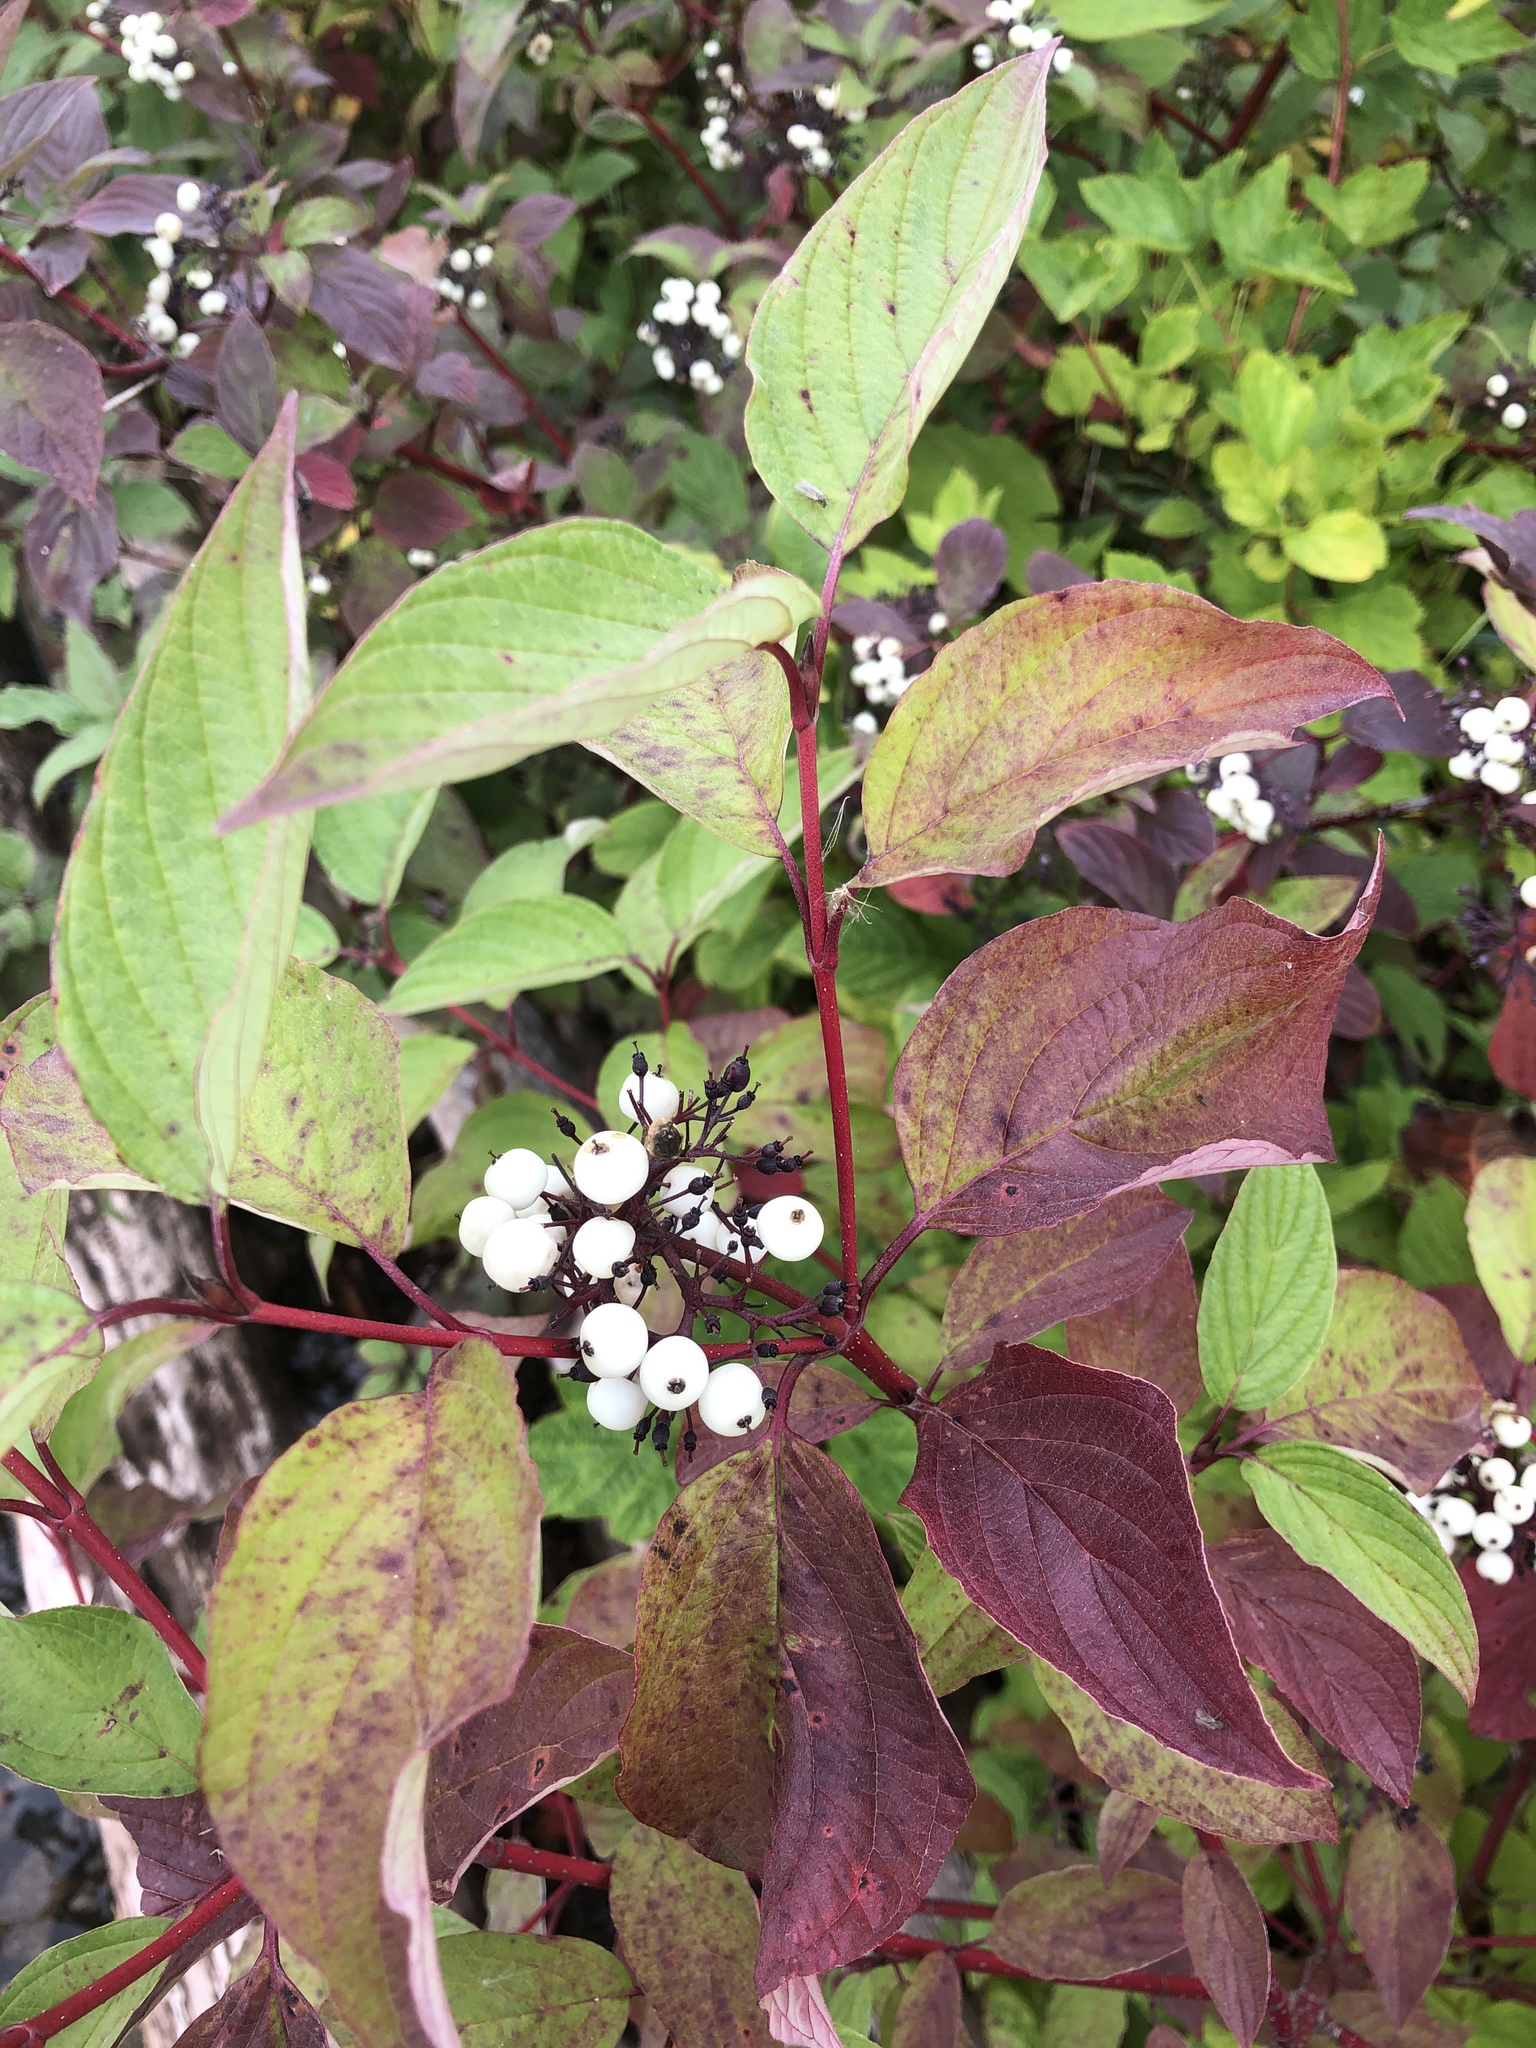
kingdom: Plantae
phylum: Tracheophyta
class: Magnoliopsida
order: Cornales
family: Cornaceae
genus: Cornus
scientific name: Cornus sericea
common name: Red-osier dogwood
